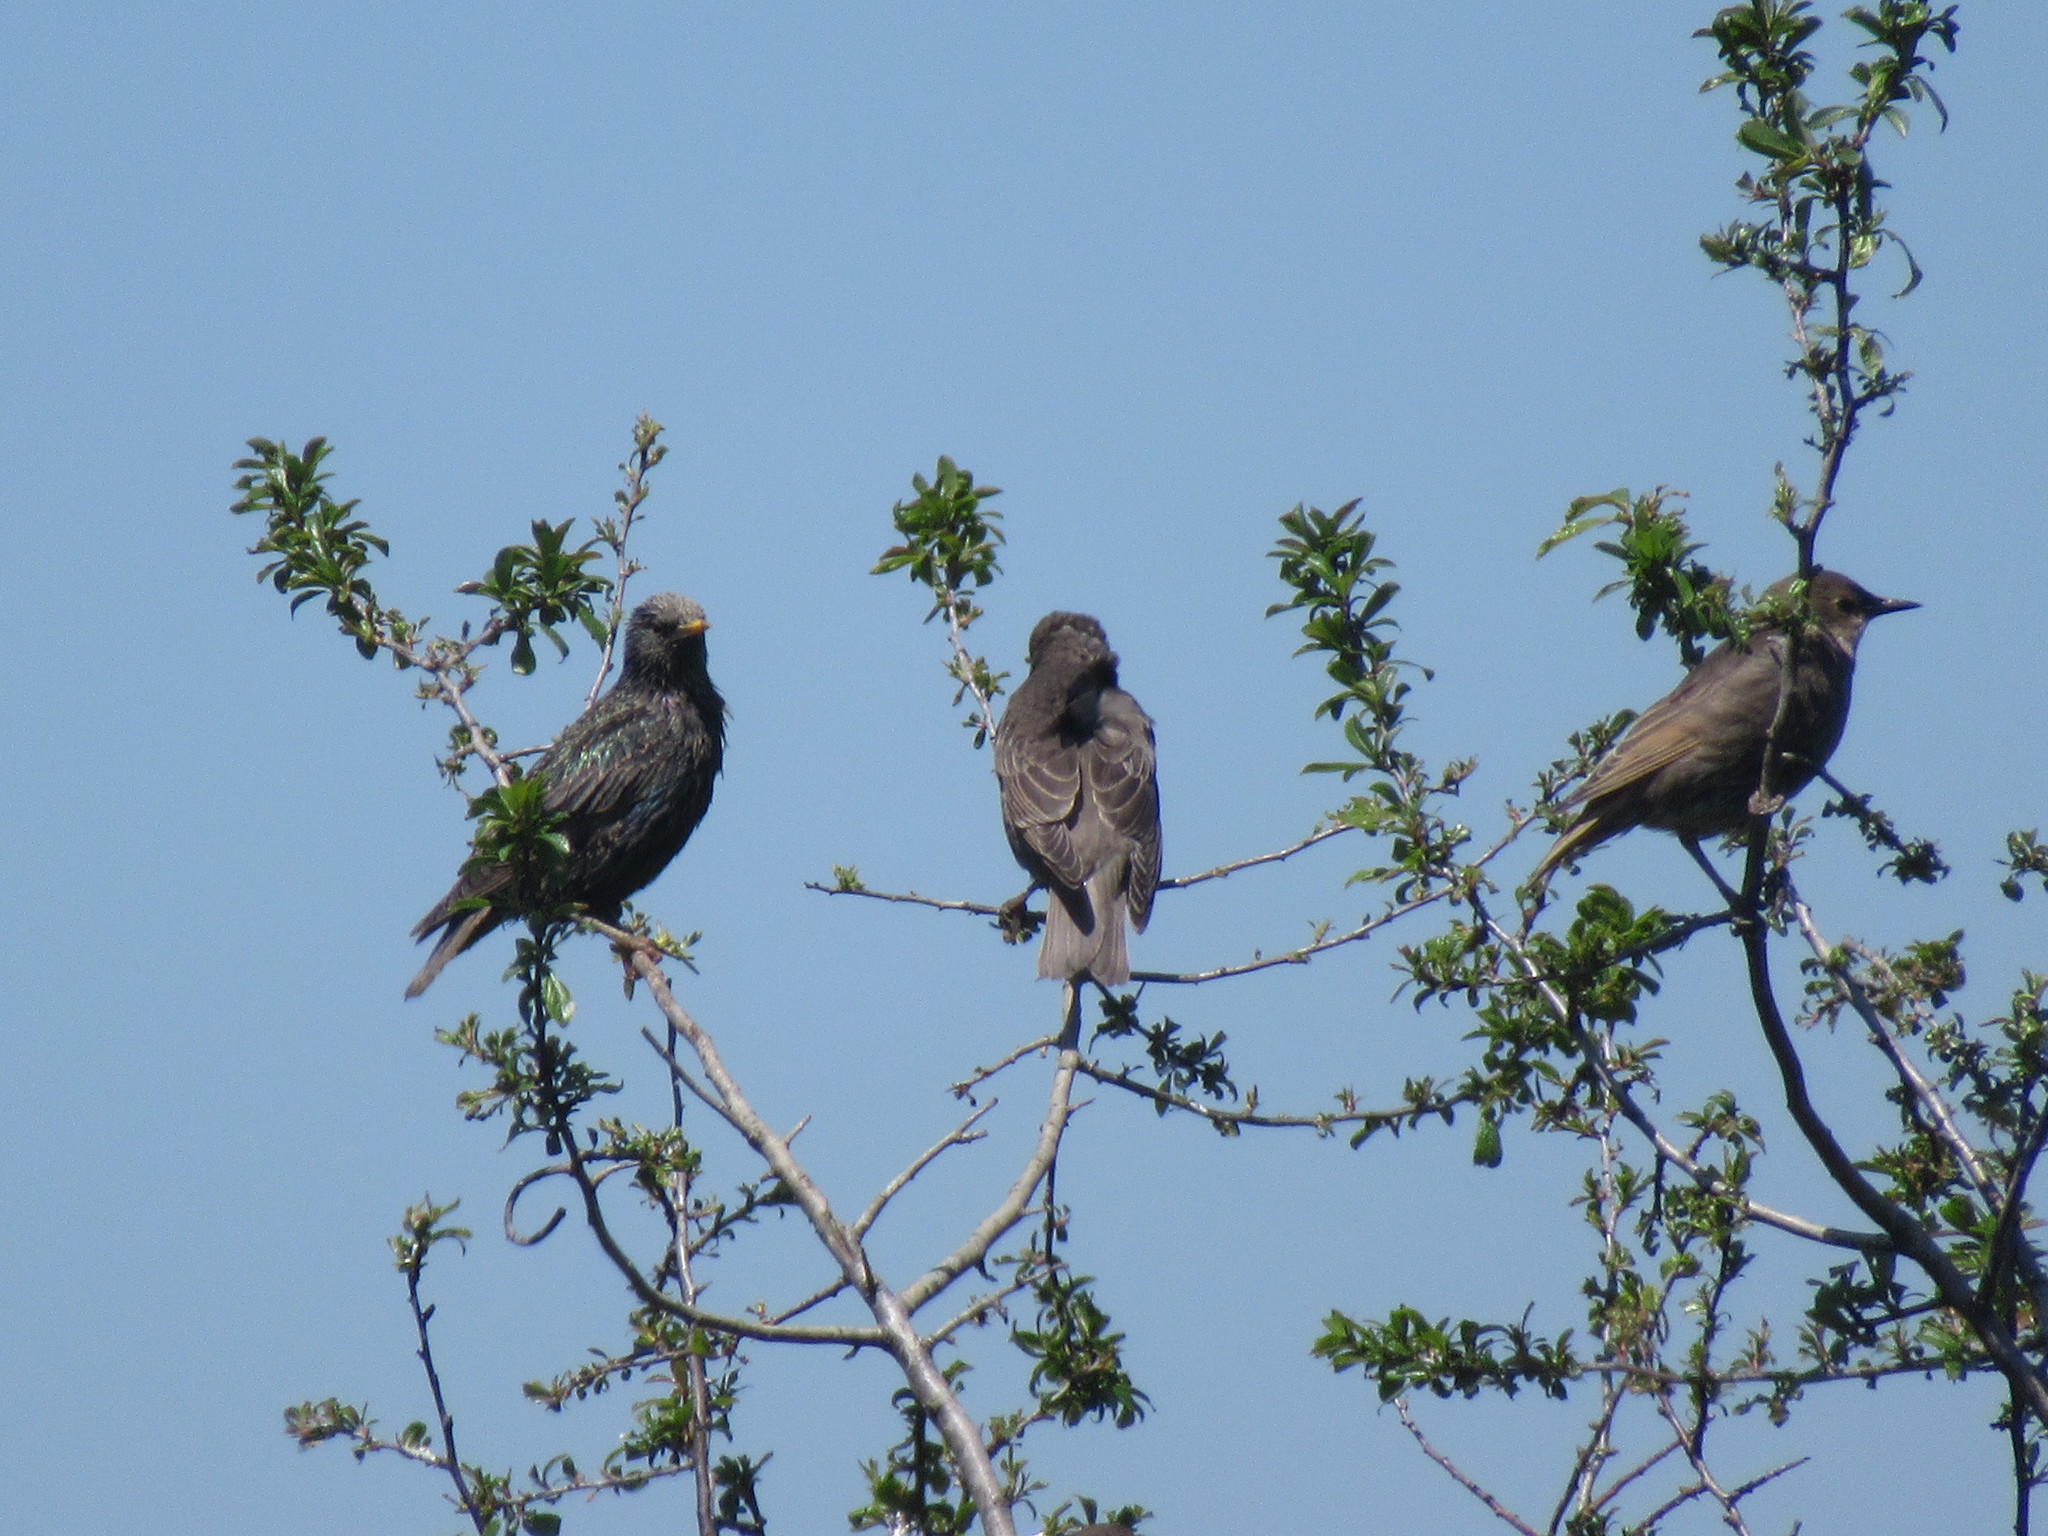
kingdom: Animalia
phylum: Chordata
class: Aves
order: Passeriformes
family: Sturnidae
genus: Sturnus
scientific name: Sturnus vulgaris
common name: Common starling
